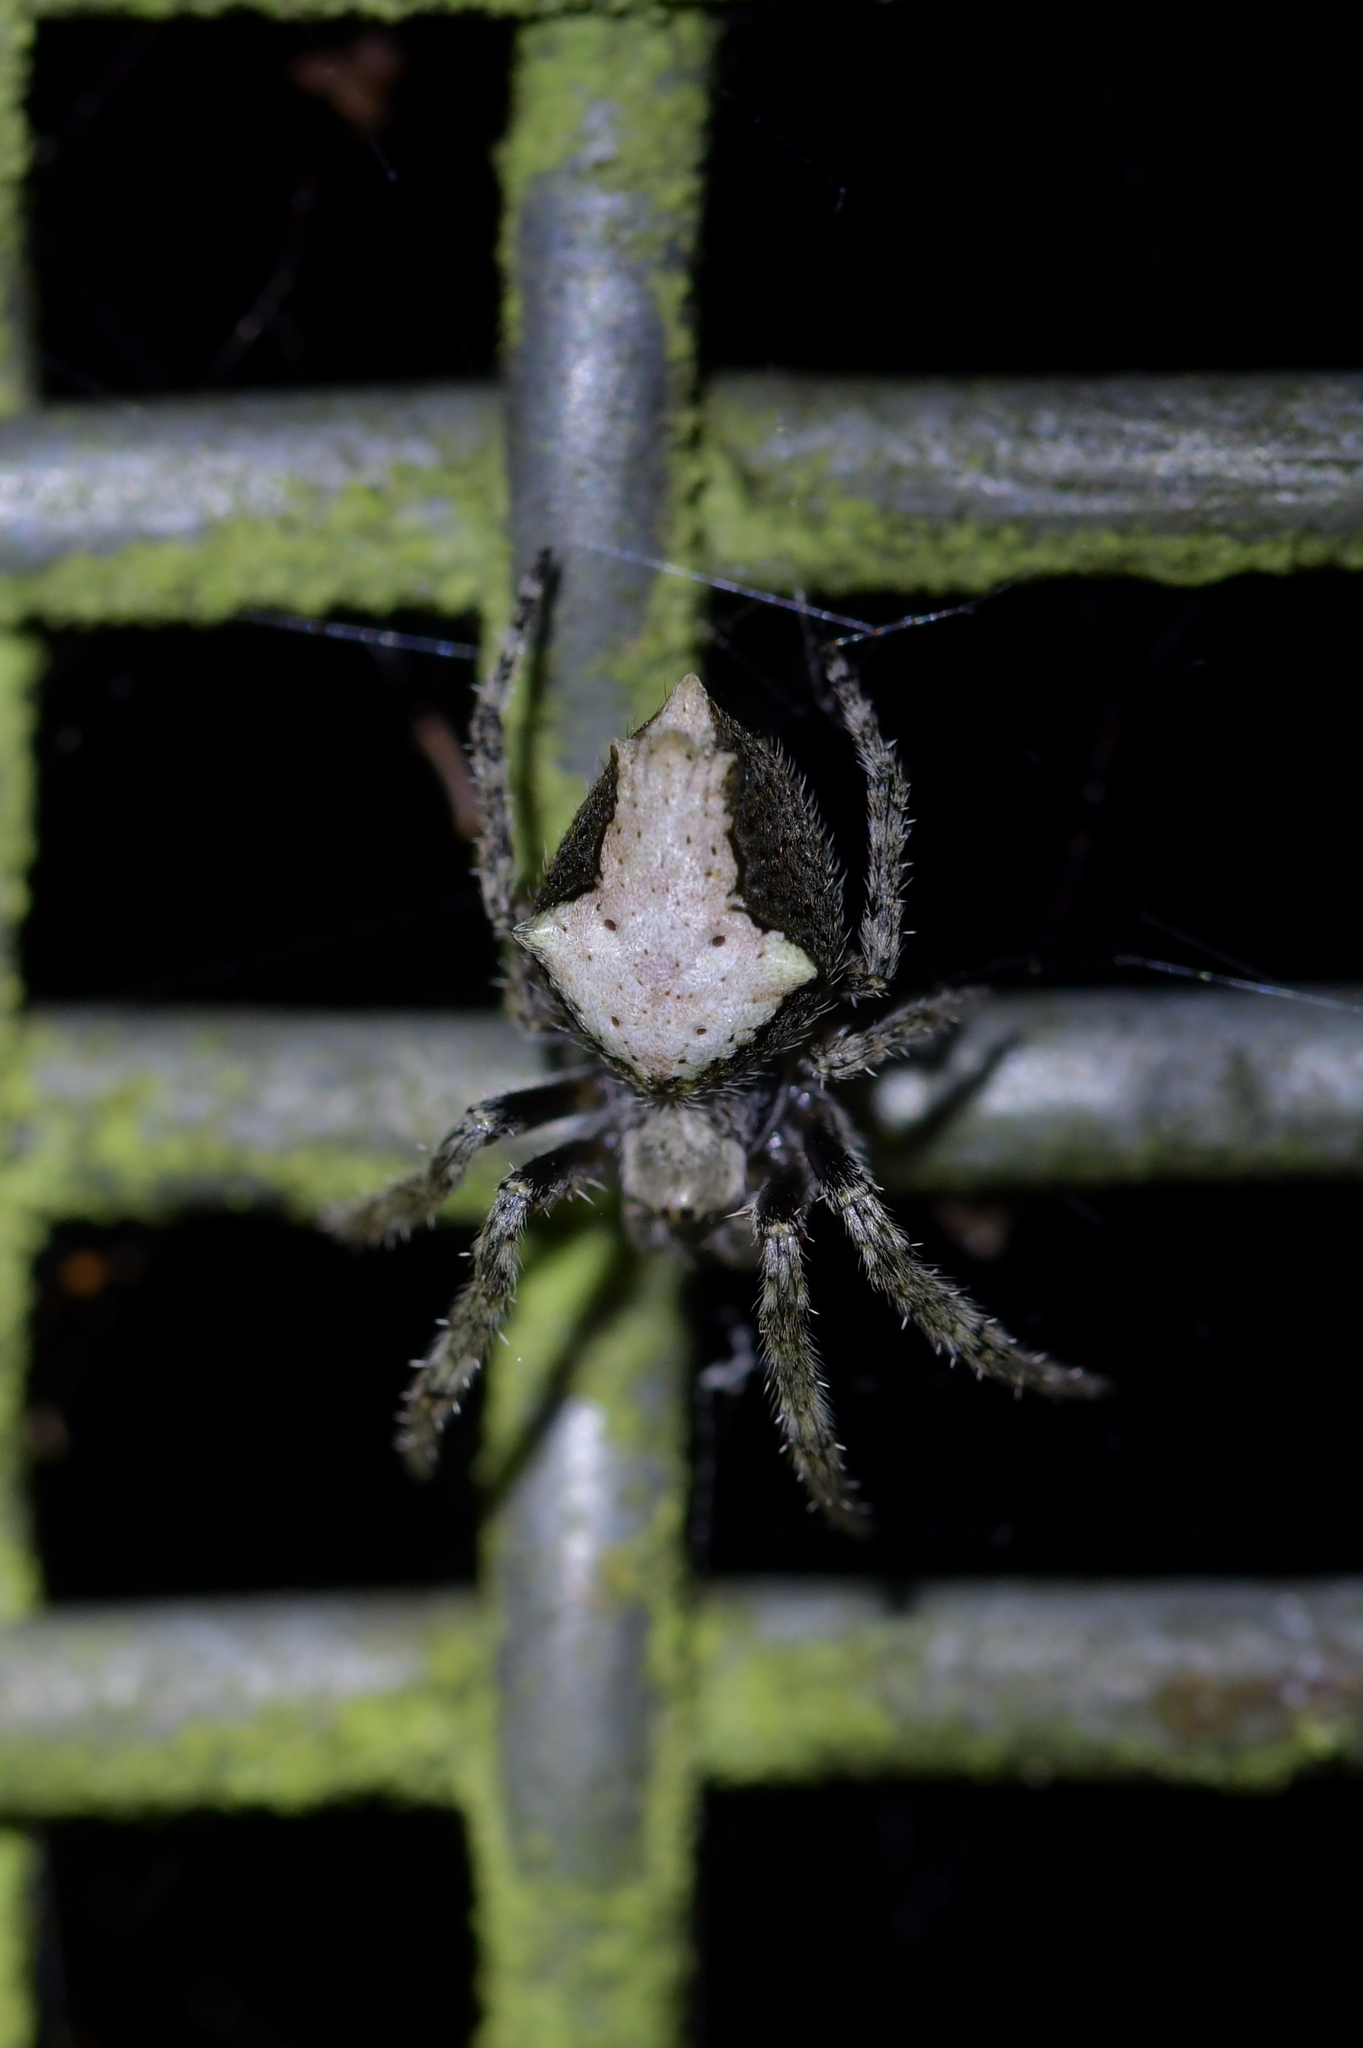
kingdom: Animalia
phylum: Arthropoda
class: Arachnida
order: Araneae
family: Araneidae
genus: Eriophora
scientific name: Eriophora pustulosa
